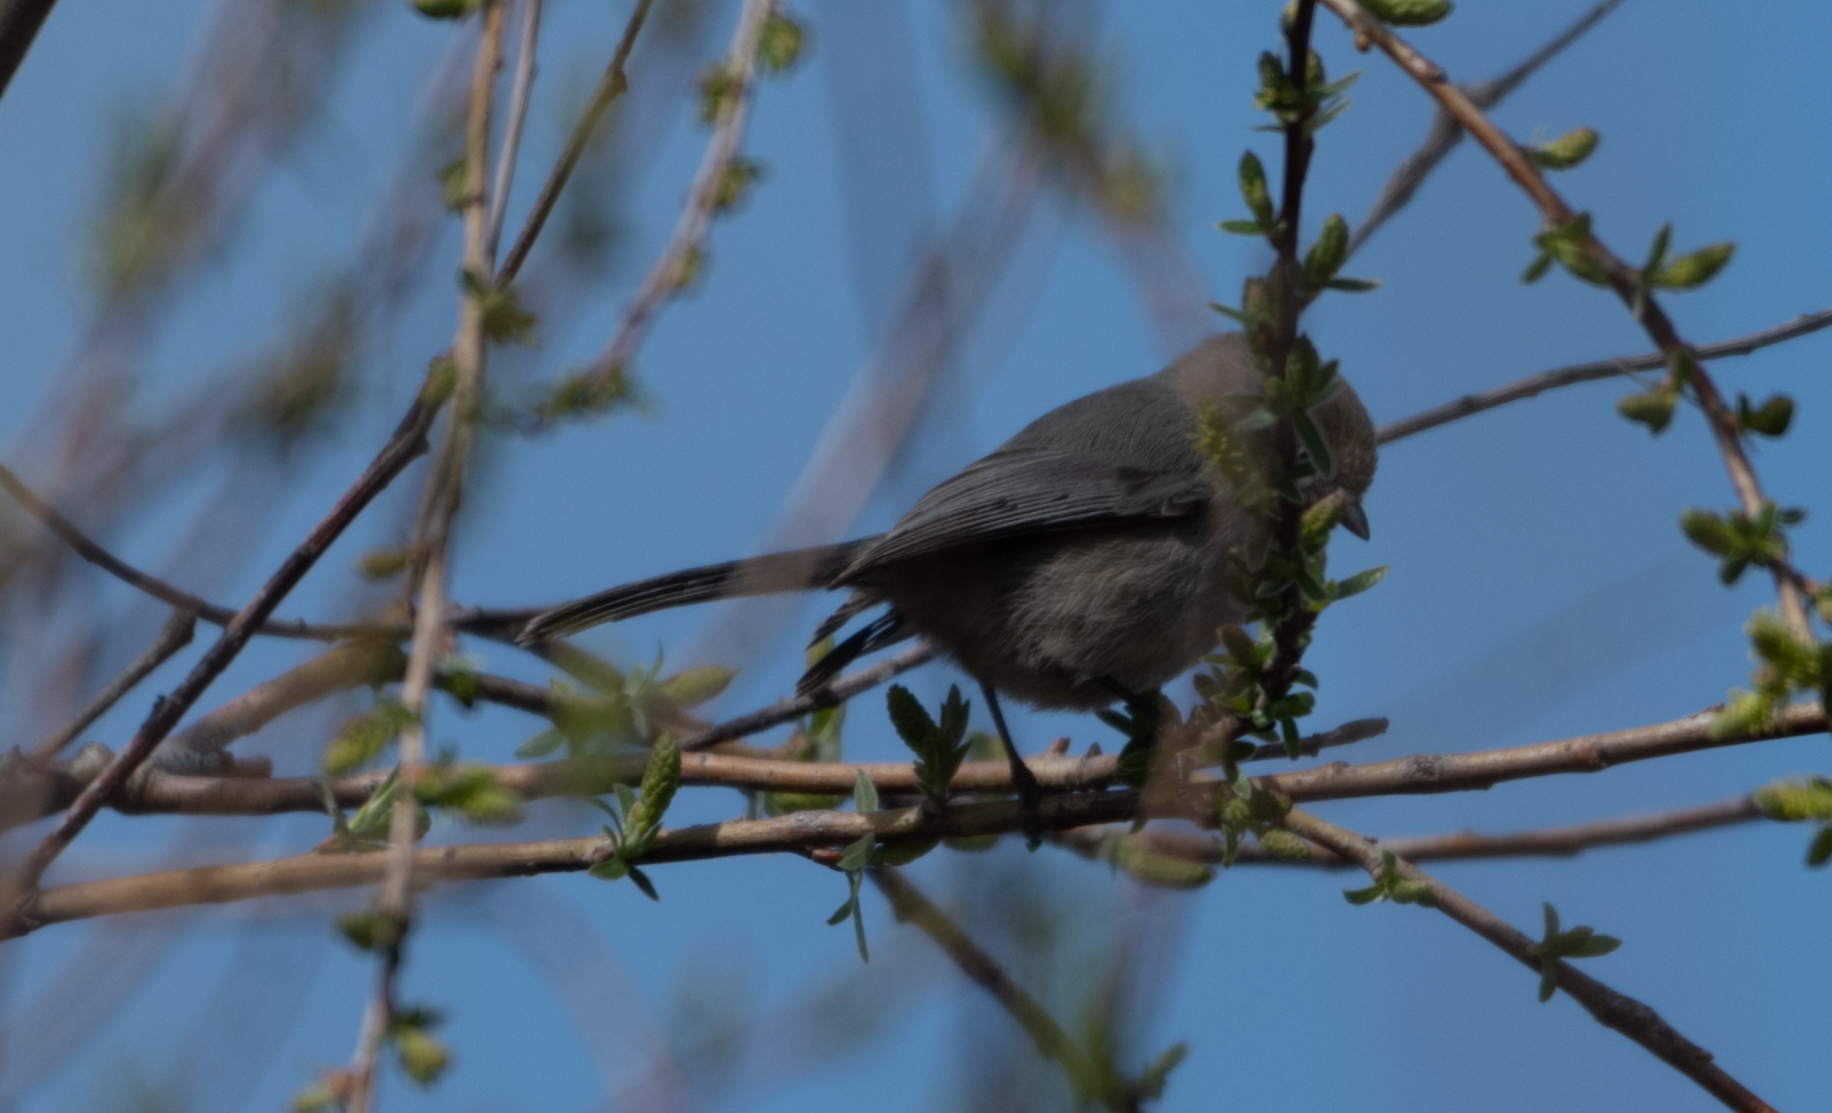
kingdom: Animalia
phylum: Chordata
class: Aves
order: Passeriformes
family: Aegithalidae
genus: Psaltriparus
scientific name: Psaltriparus minimus
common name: American bushtit
